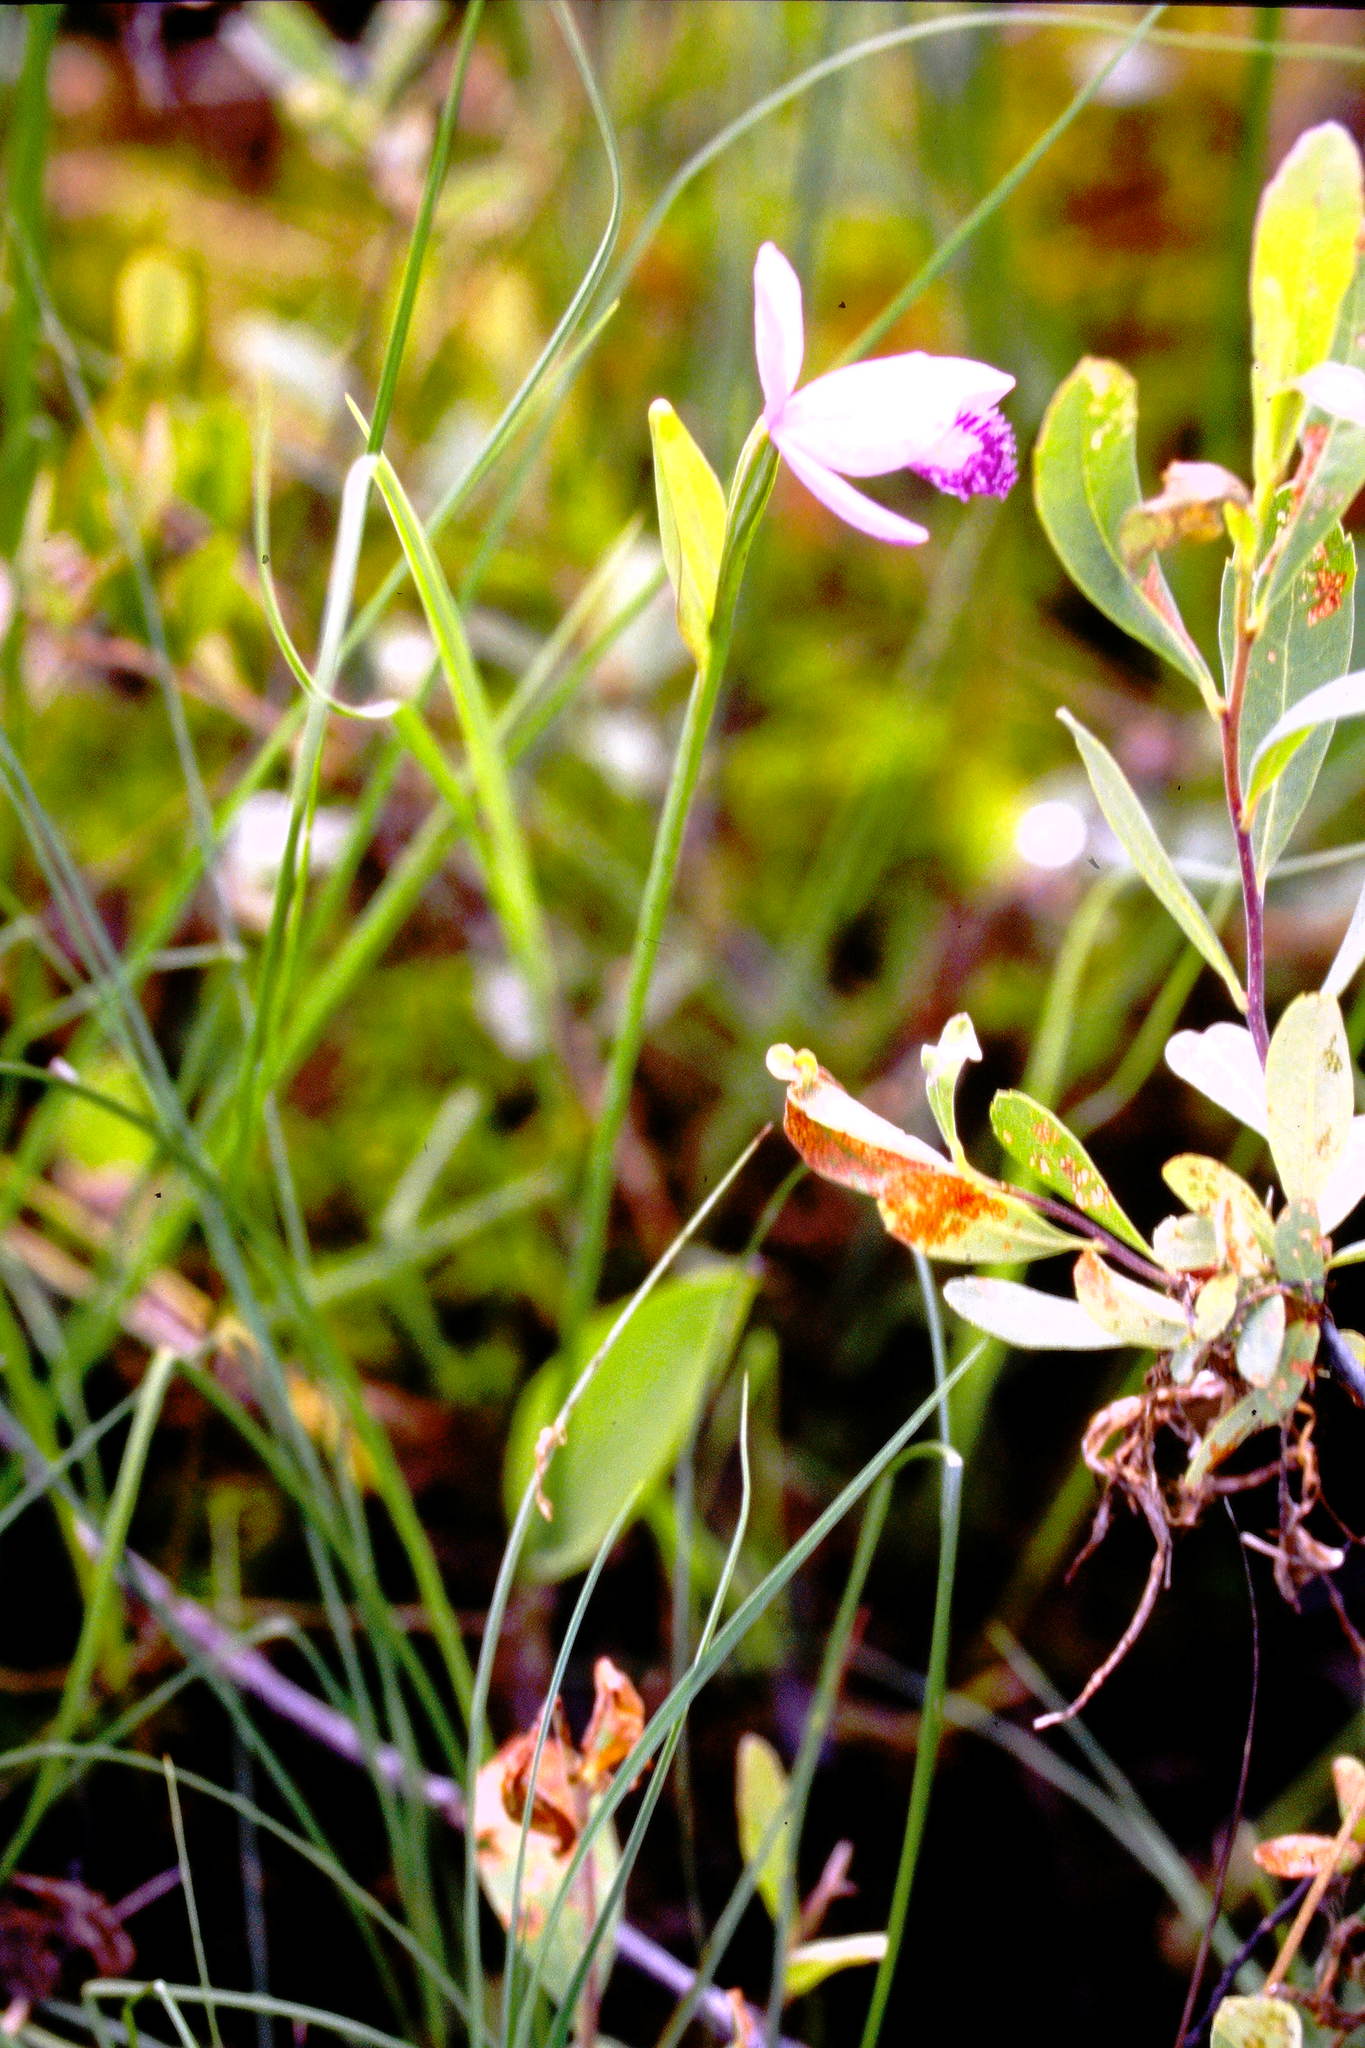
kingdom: Plantae
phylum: Tracheophyta
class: Liliopsida
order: Asparagales
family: Orchidaceae
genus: Pogonia
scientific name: Pogonia ophioglossoides
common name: Rose pogonia
